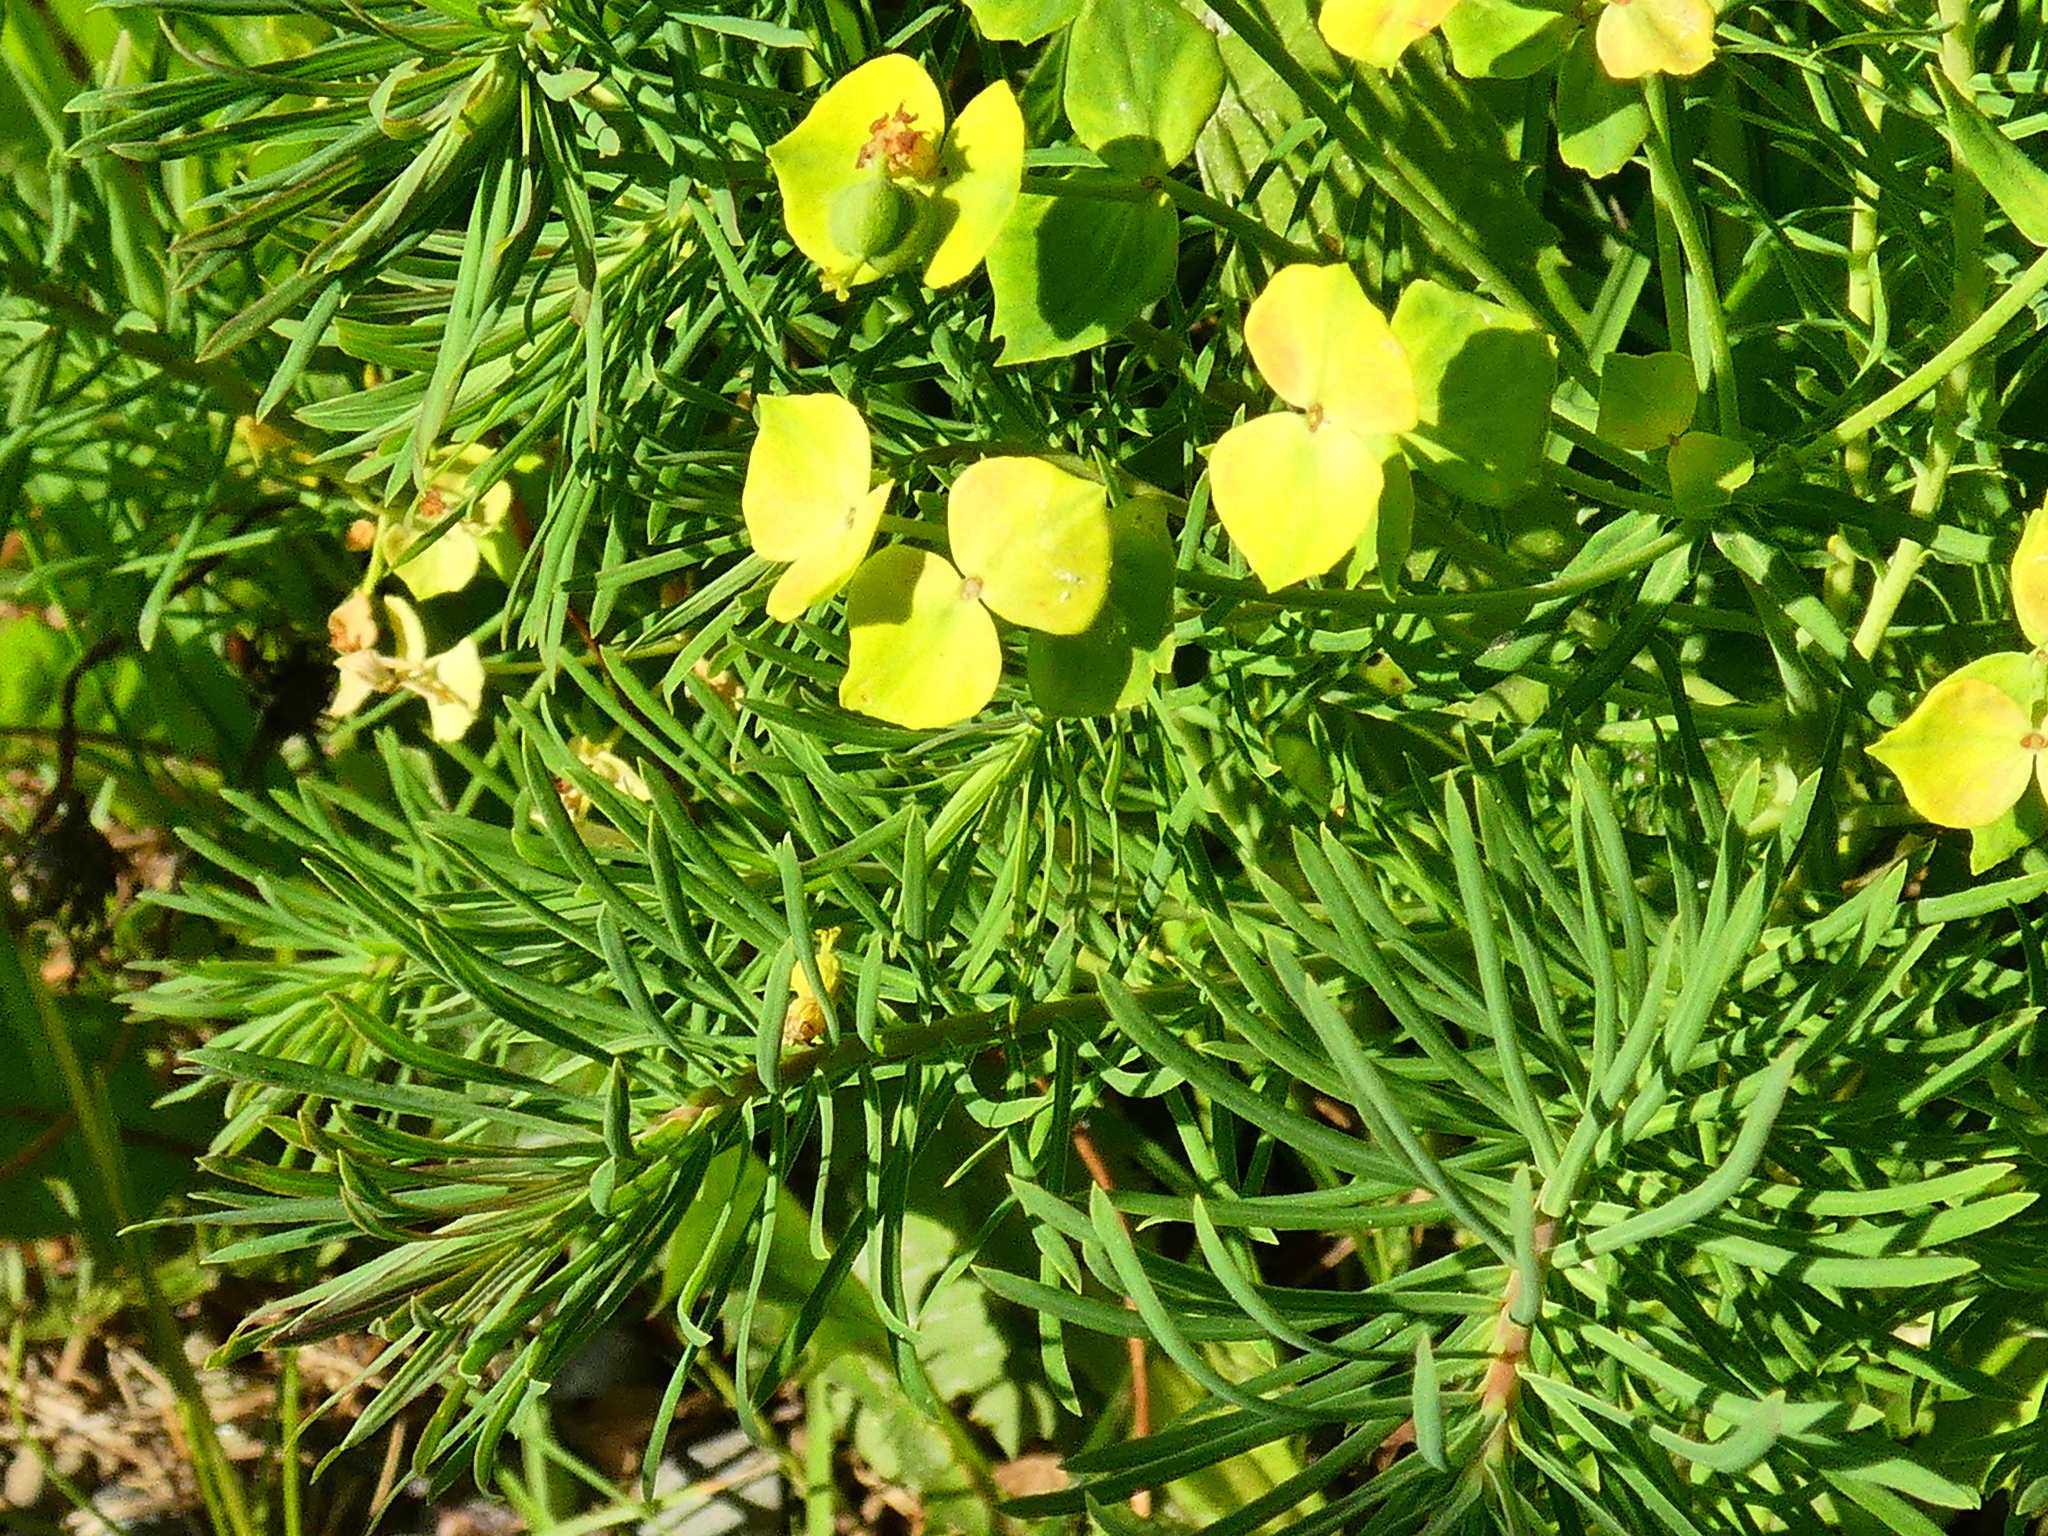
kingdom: Plantae
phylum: Tracheophyta
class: Magnoliopsida
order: Malpighiales
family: Euphorbiaceae
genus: Euphorbia
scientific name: Euphorbia cyparissias
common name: Cypress spurge
